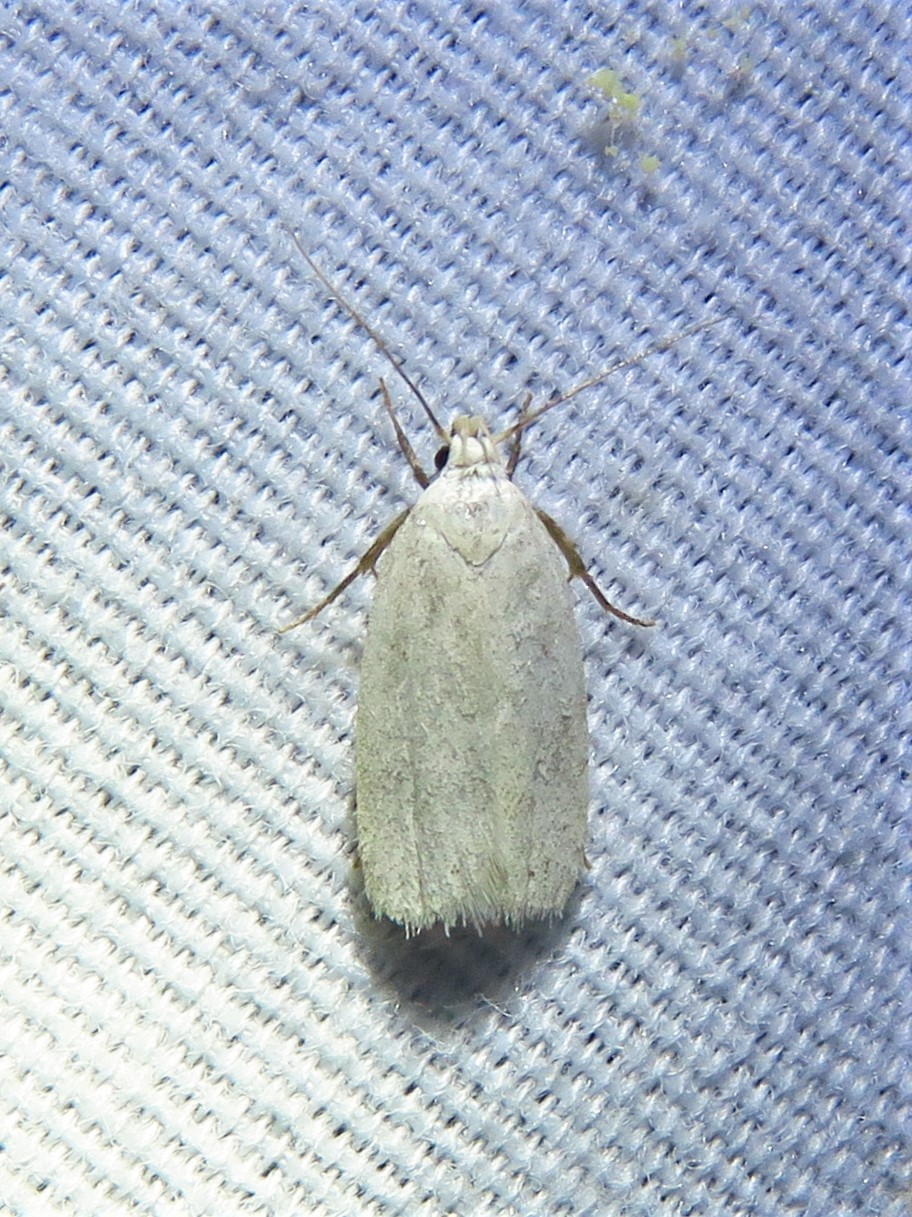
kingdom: Animalia
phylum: Arthropoda
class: Insecta
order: Lepidoptera
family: Oecophoridae
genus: Inga
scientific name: Inga cretacea
